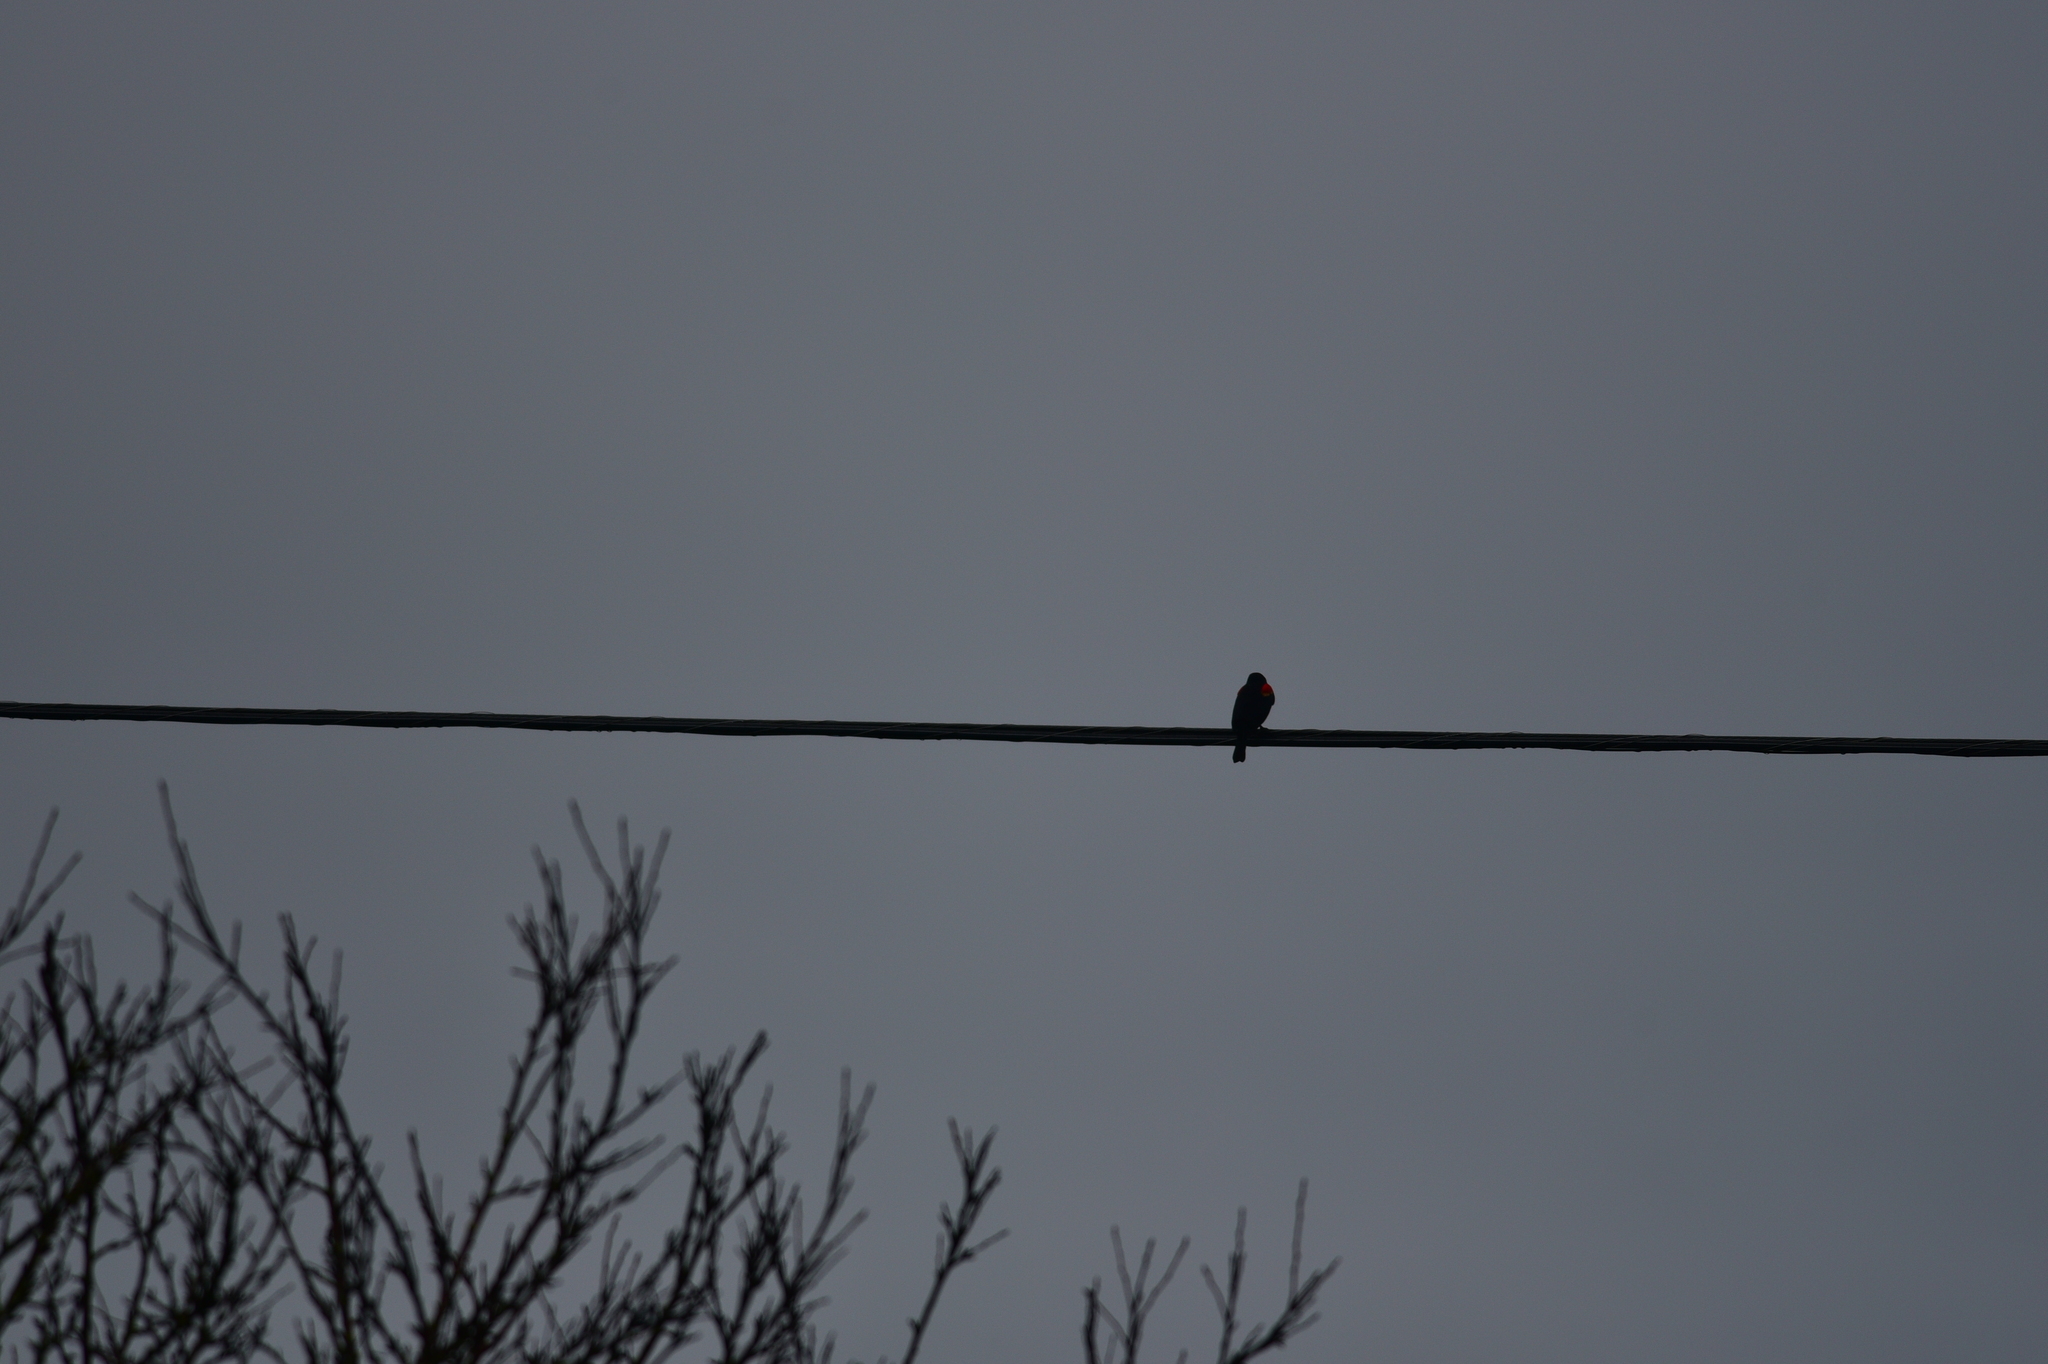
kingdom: Animalia
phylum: Chordata
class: Aves
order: Passeriformes
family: Icteridae
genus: Agelaius
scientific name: Agelaius phoeniceus
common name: Red-winged blackbird
